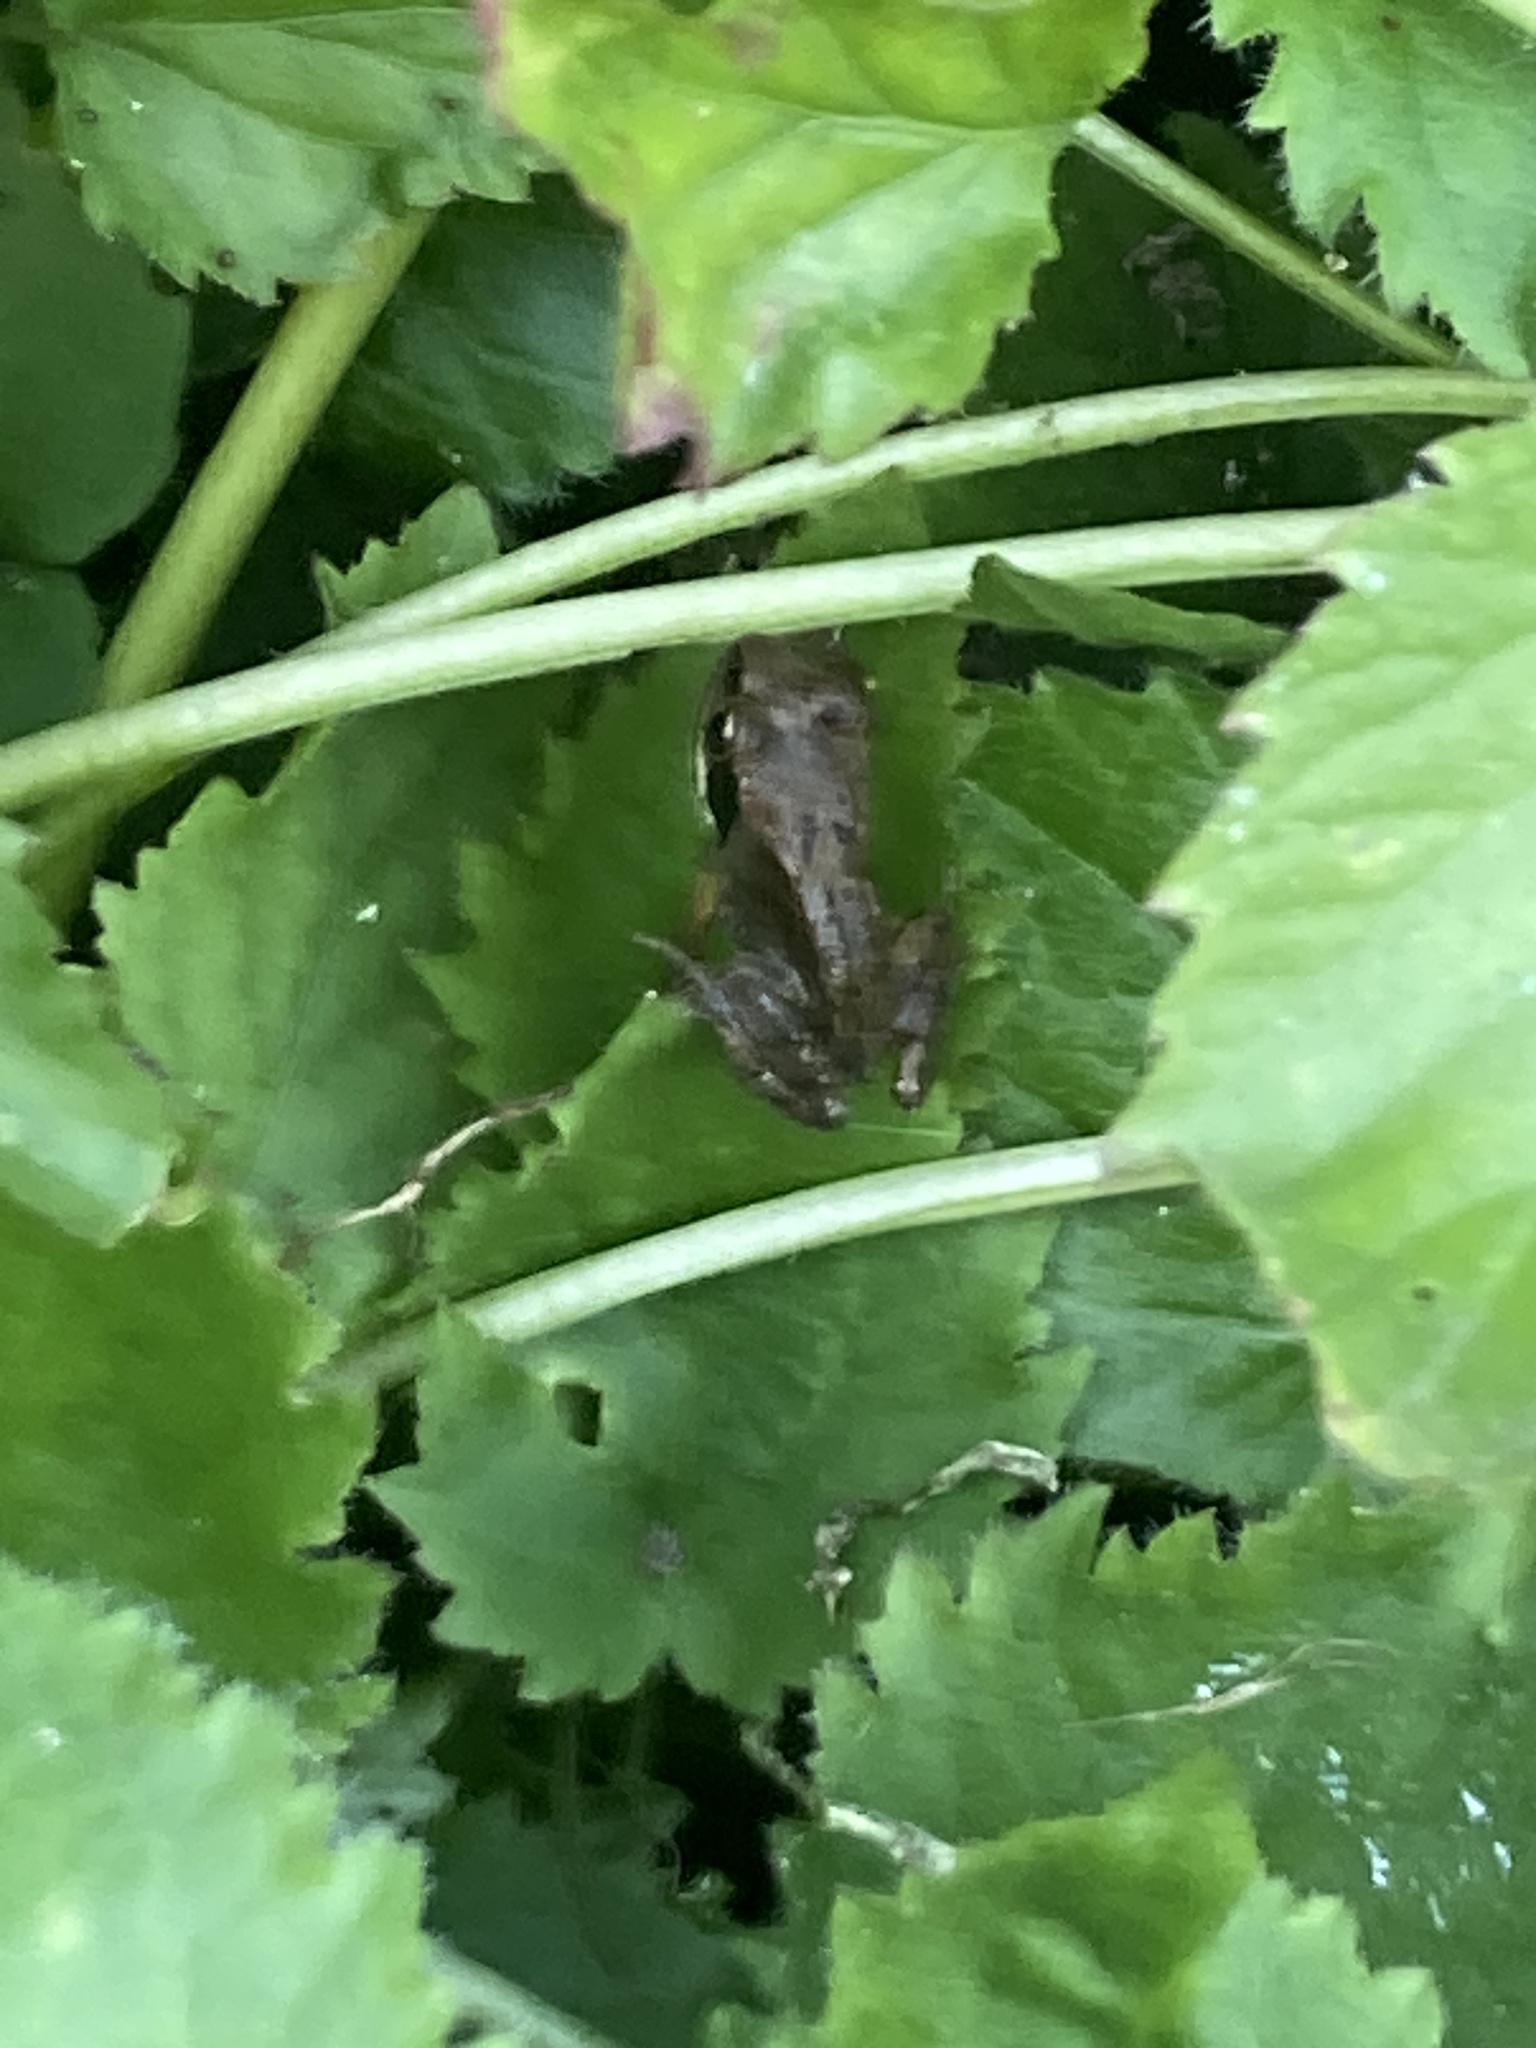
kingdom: Animalia
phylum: Chordata
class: Amphibia
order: Anura
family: Ranidae
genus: Rana
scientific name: Rana temporaria
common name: Common frog
